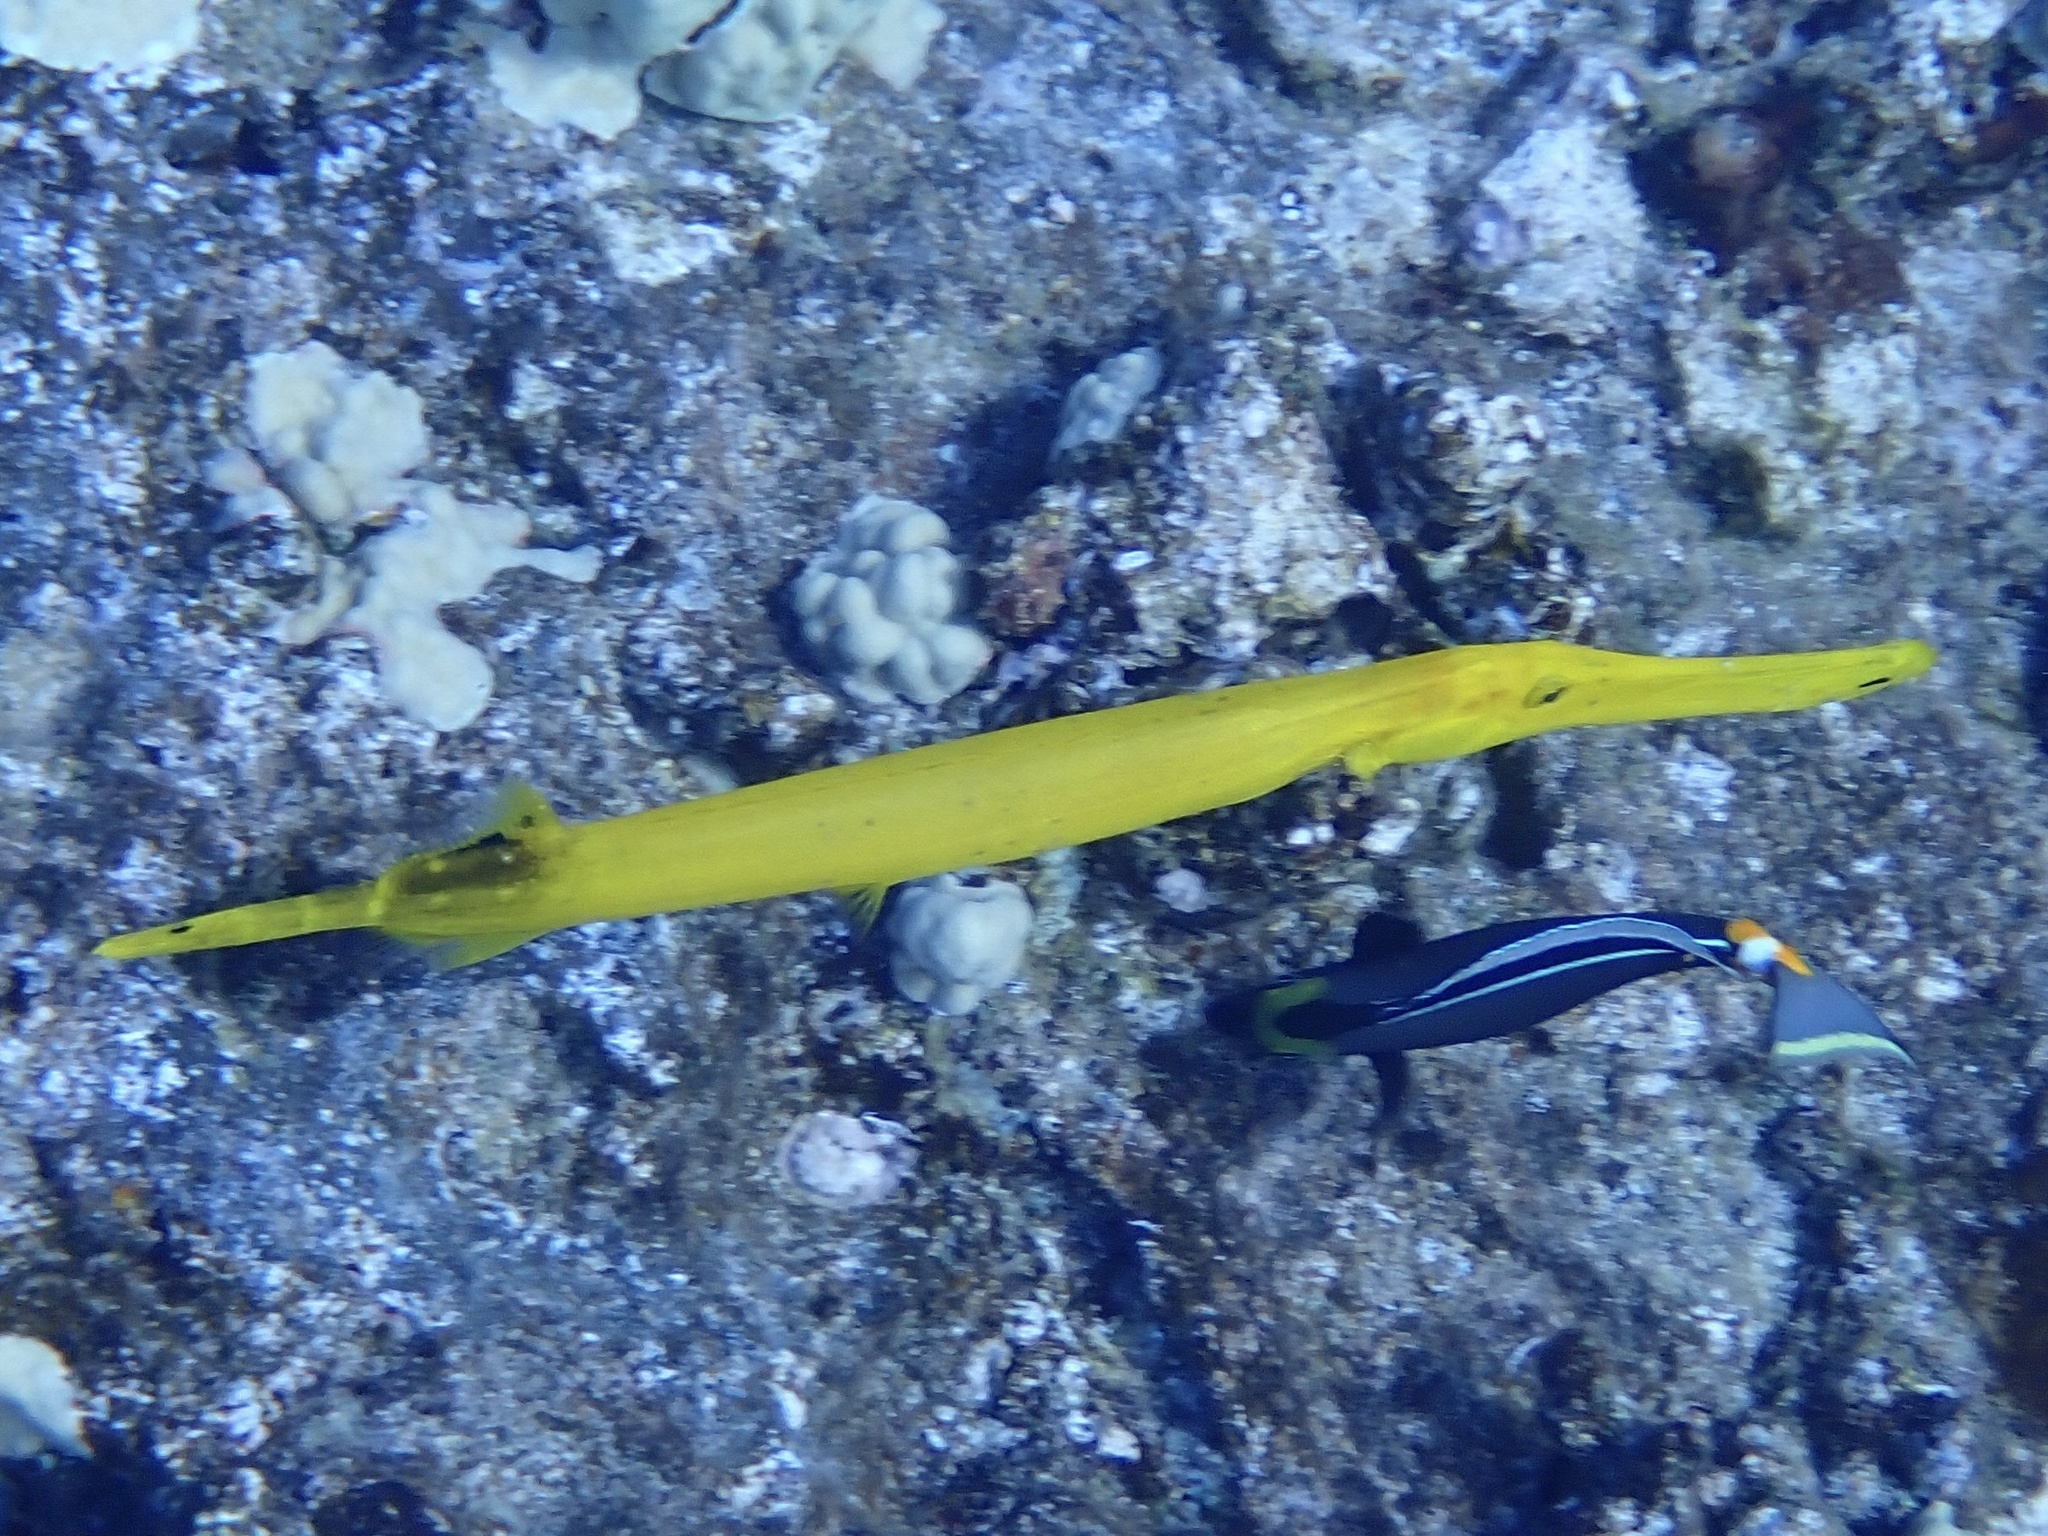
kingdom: Animalia
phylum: Chordata
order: Syngnathiformes
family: Aulostomidae
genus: Aulostomus
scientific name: Aulostomus chinensis
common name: Chinese trumpetfish
